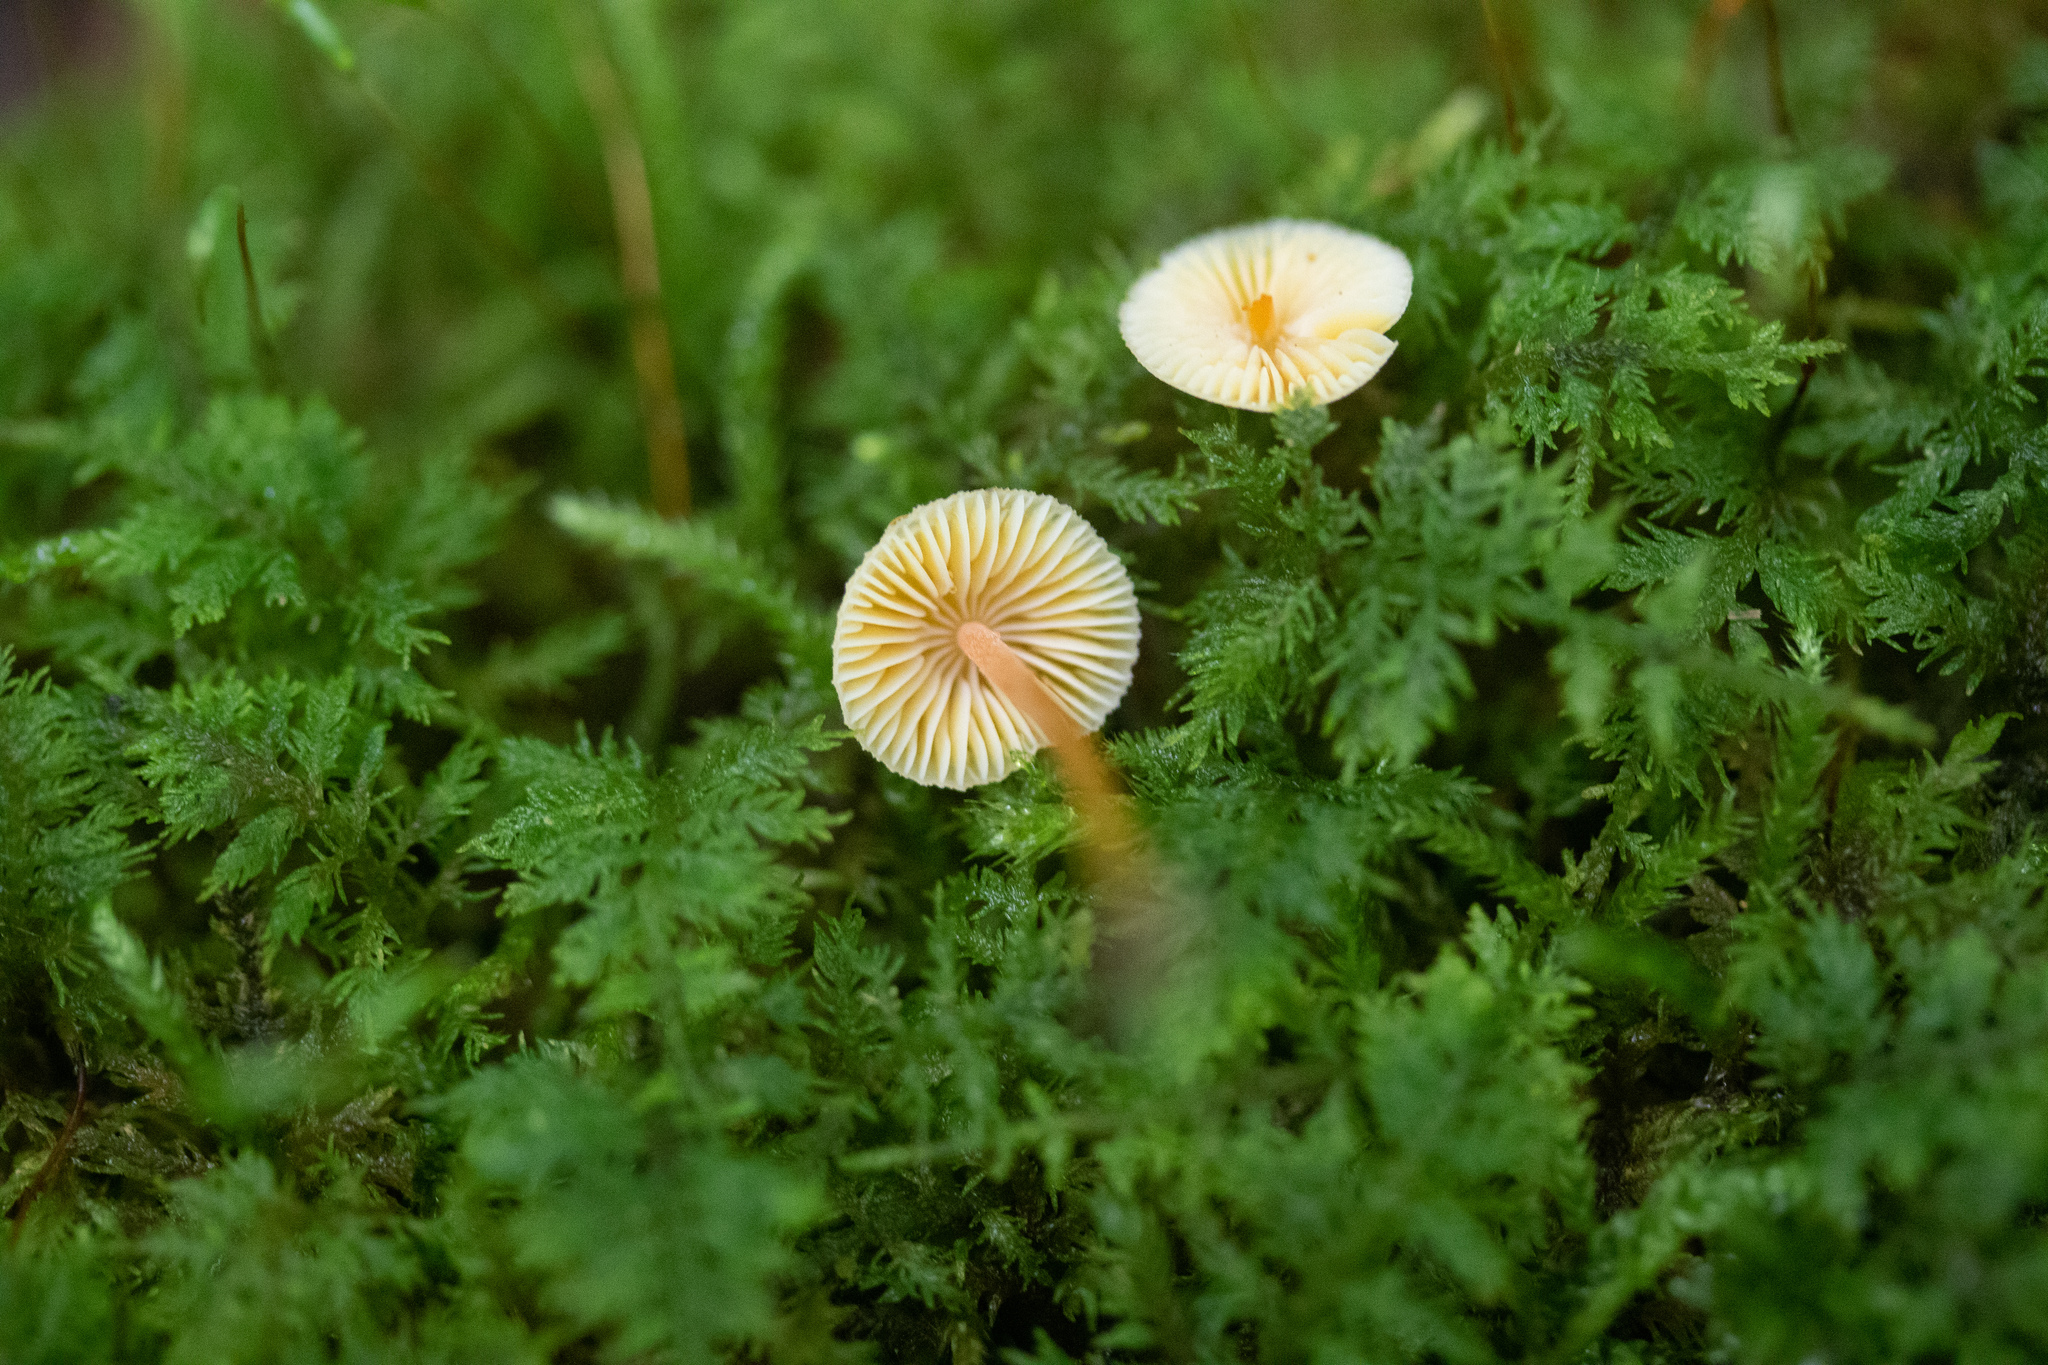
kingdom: Fungi
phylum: Basidiomycota
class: Agaricomycetes
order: Agaricales
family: Mycenaceae
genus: Mycena
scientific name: Mycena crocea
